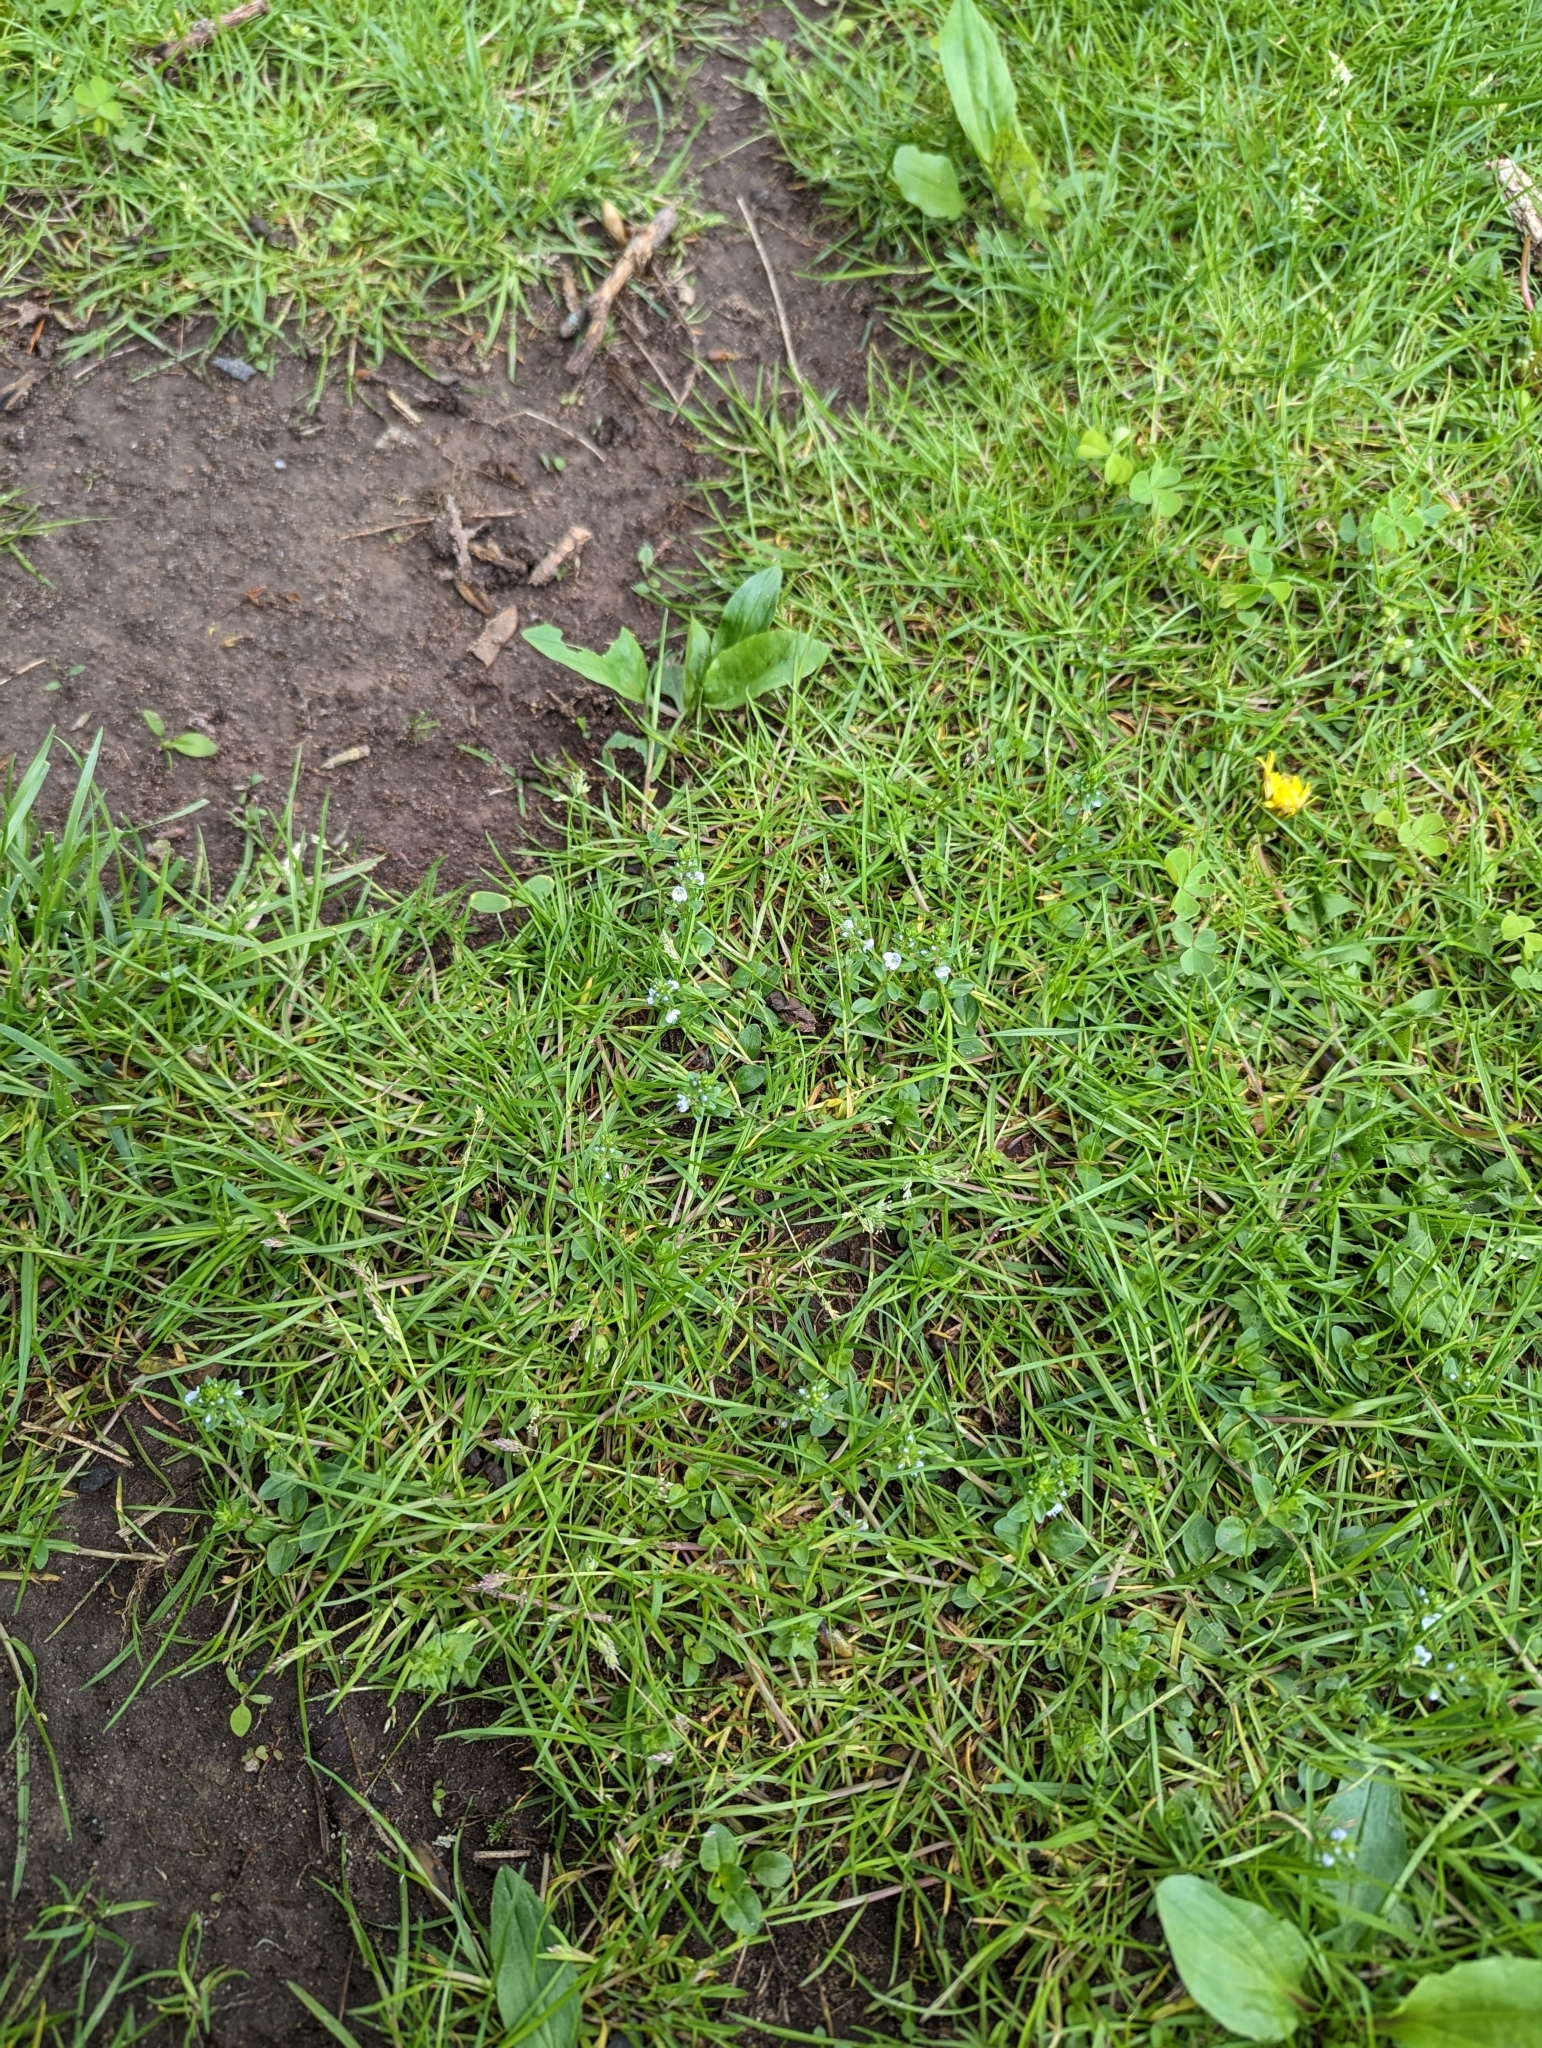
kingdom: Plantae
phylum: Tracheophyta
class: Magnoliopsida
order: Lamiales
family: Plantaginaceae
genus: Veronica
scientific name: Veronica serpyllifolia
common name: Thyme-leaved speedwell
